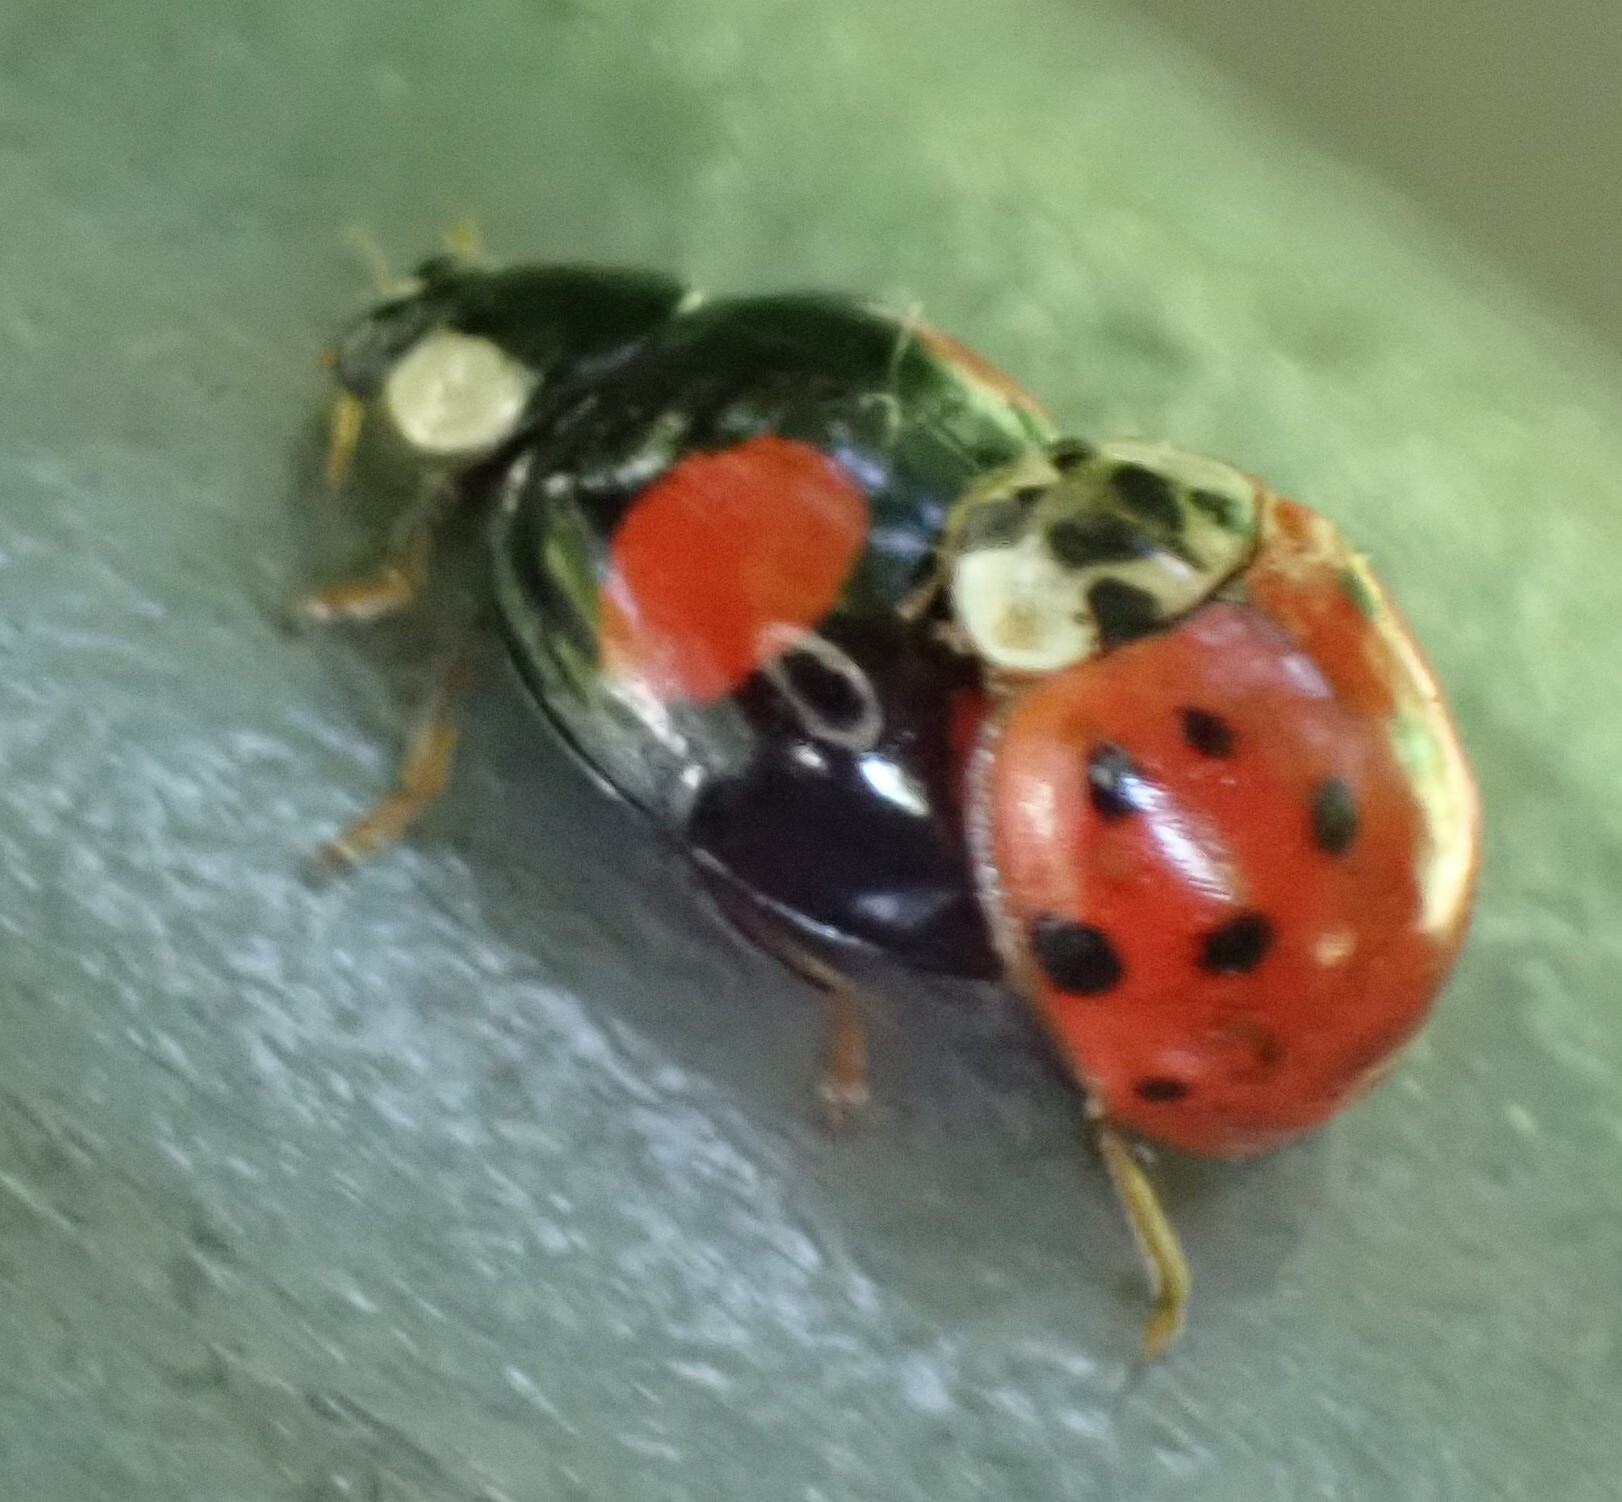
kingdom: Animalia
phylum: Arthropoda
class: Insecta
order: Coleoptera
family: Coccinellidae
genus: Harmonia
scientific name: Harmonia axyridis
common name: Harlequin ladybird
